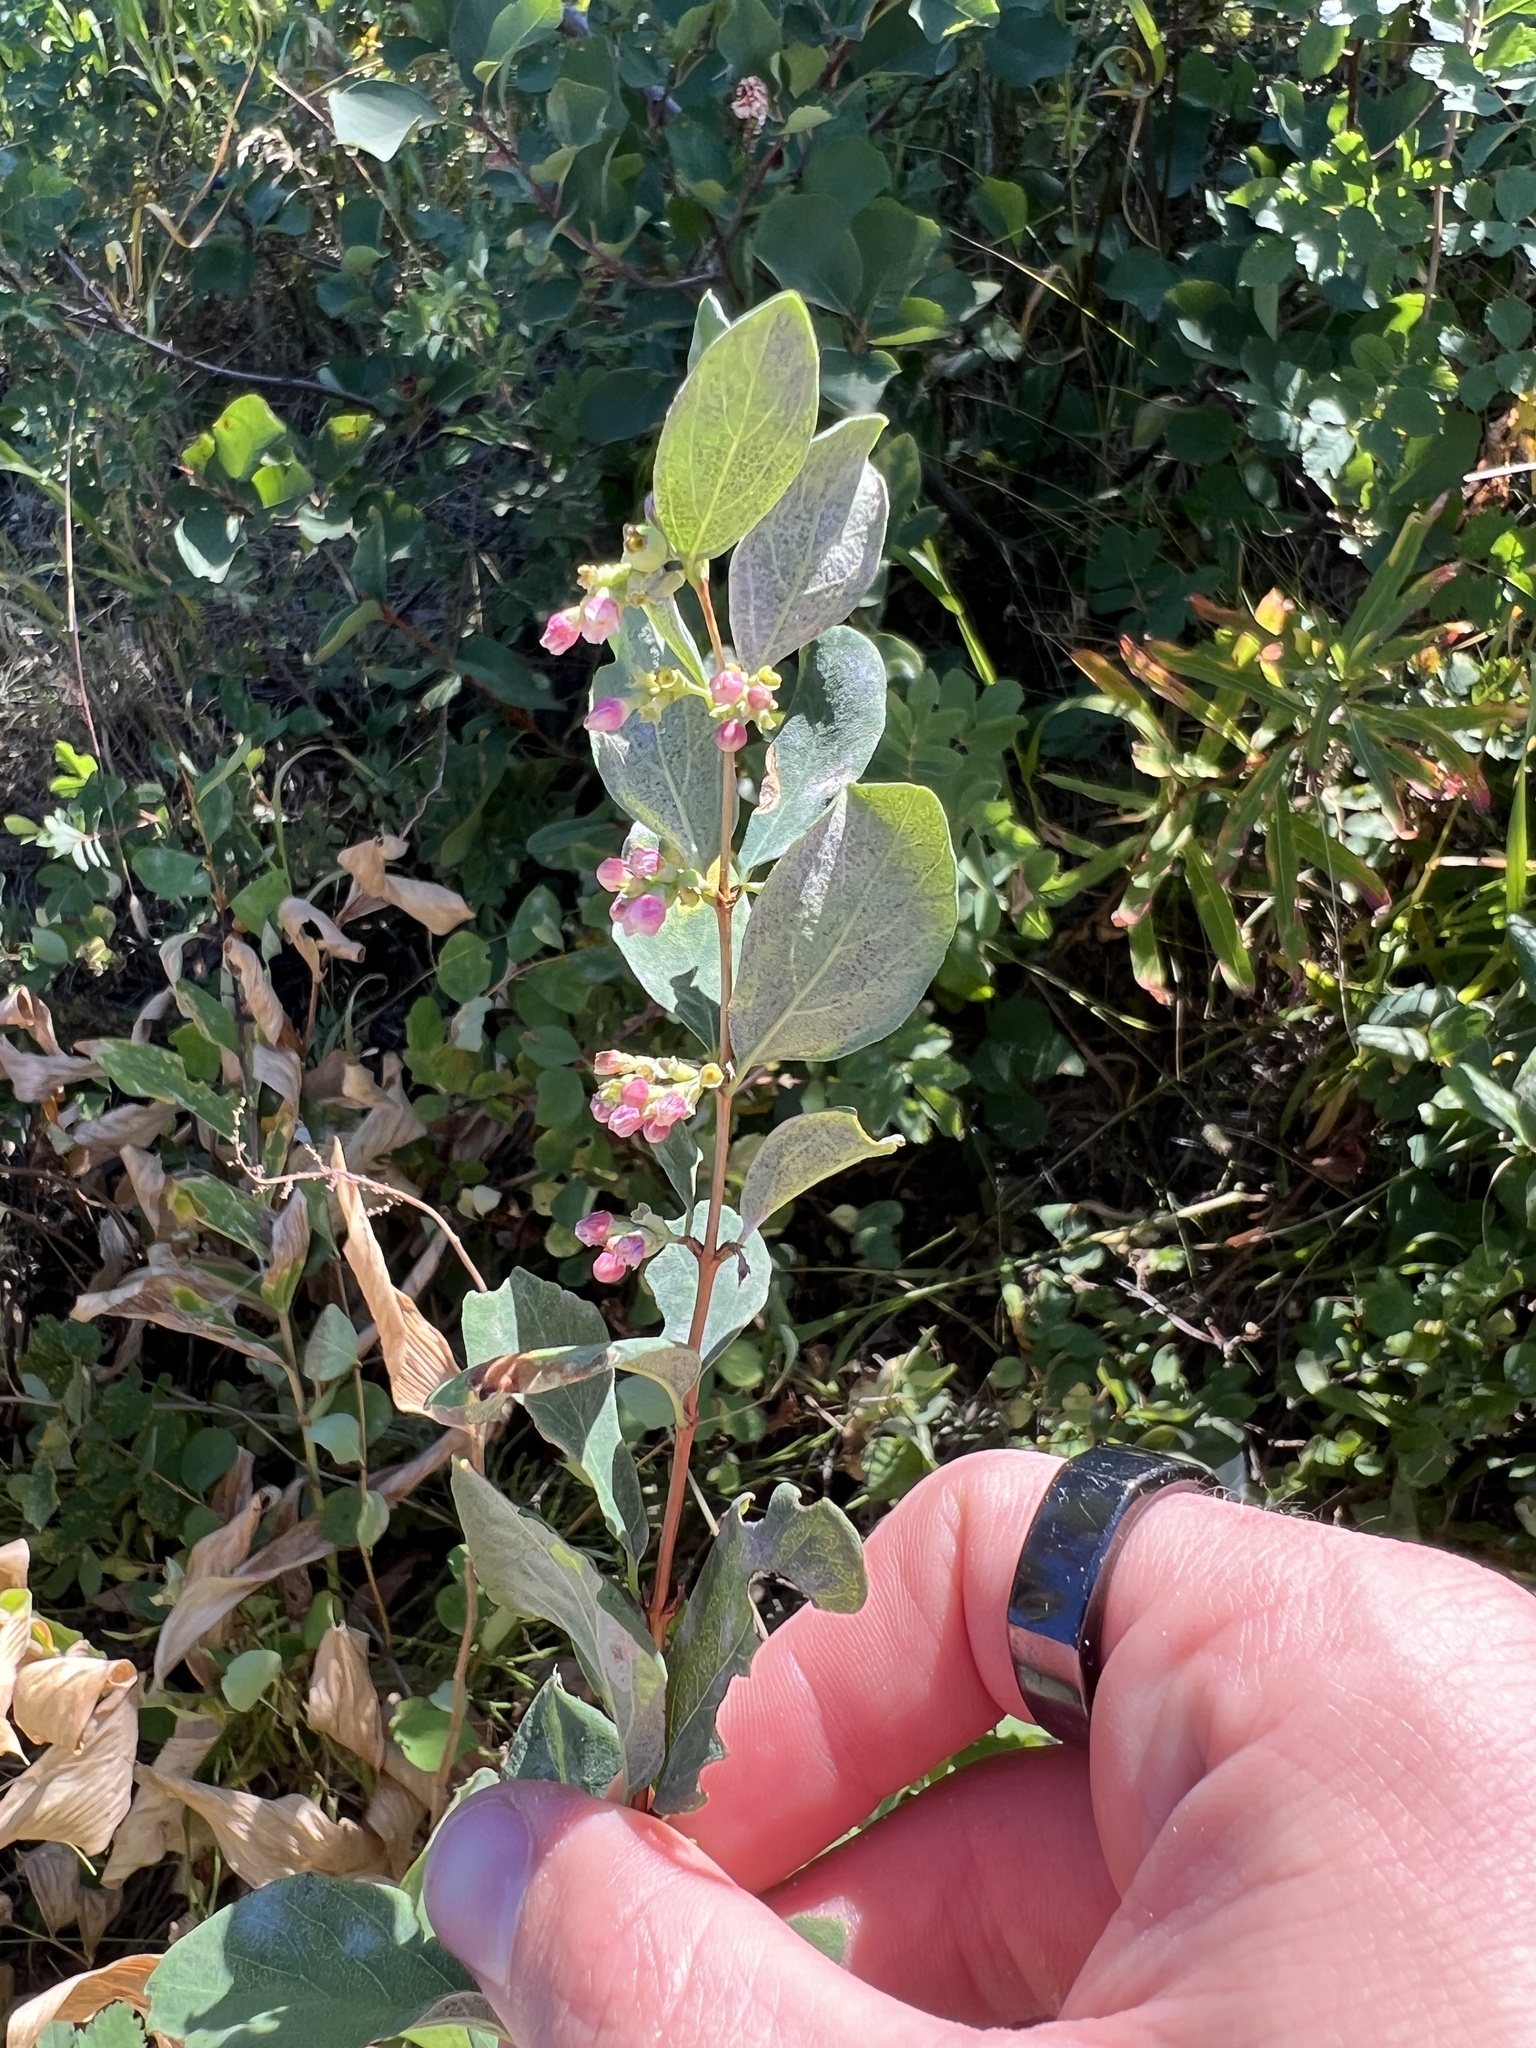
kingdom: Plantae
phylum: Tracheophyta
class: Magnoliopsida
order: Dipsacales
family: Caprifoliaceae
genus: Symphoricarpos
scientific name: Symphoricarpos occidentalis
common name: Wolfberry
